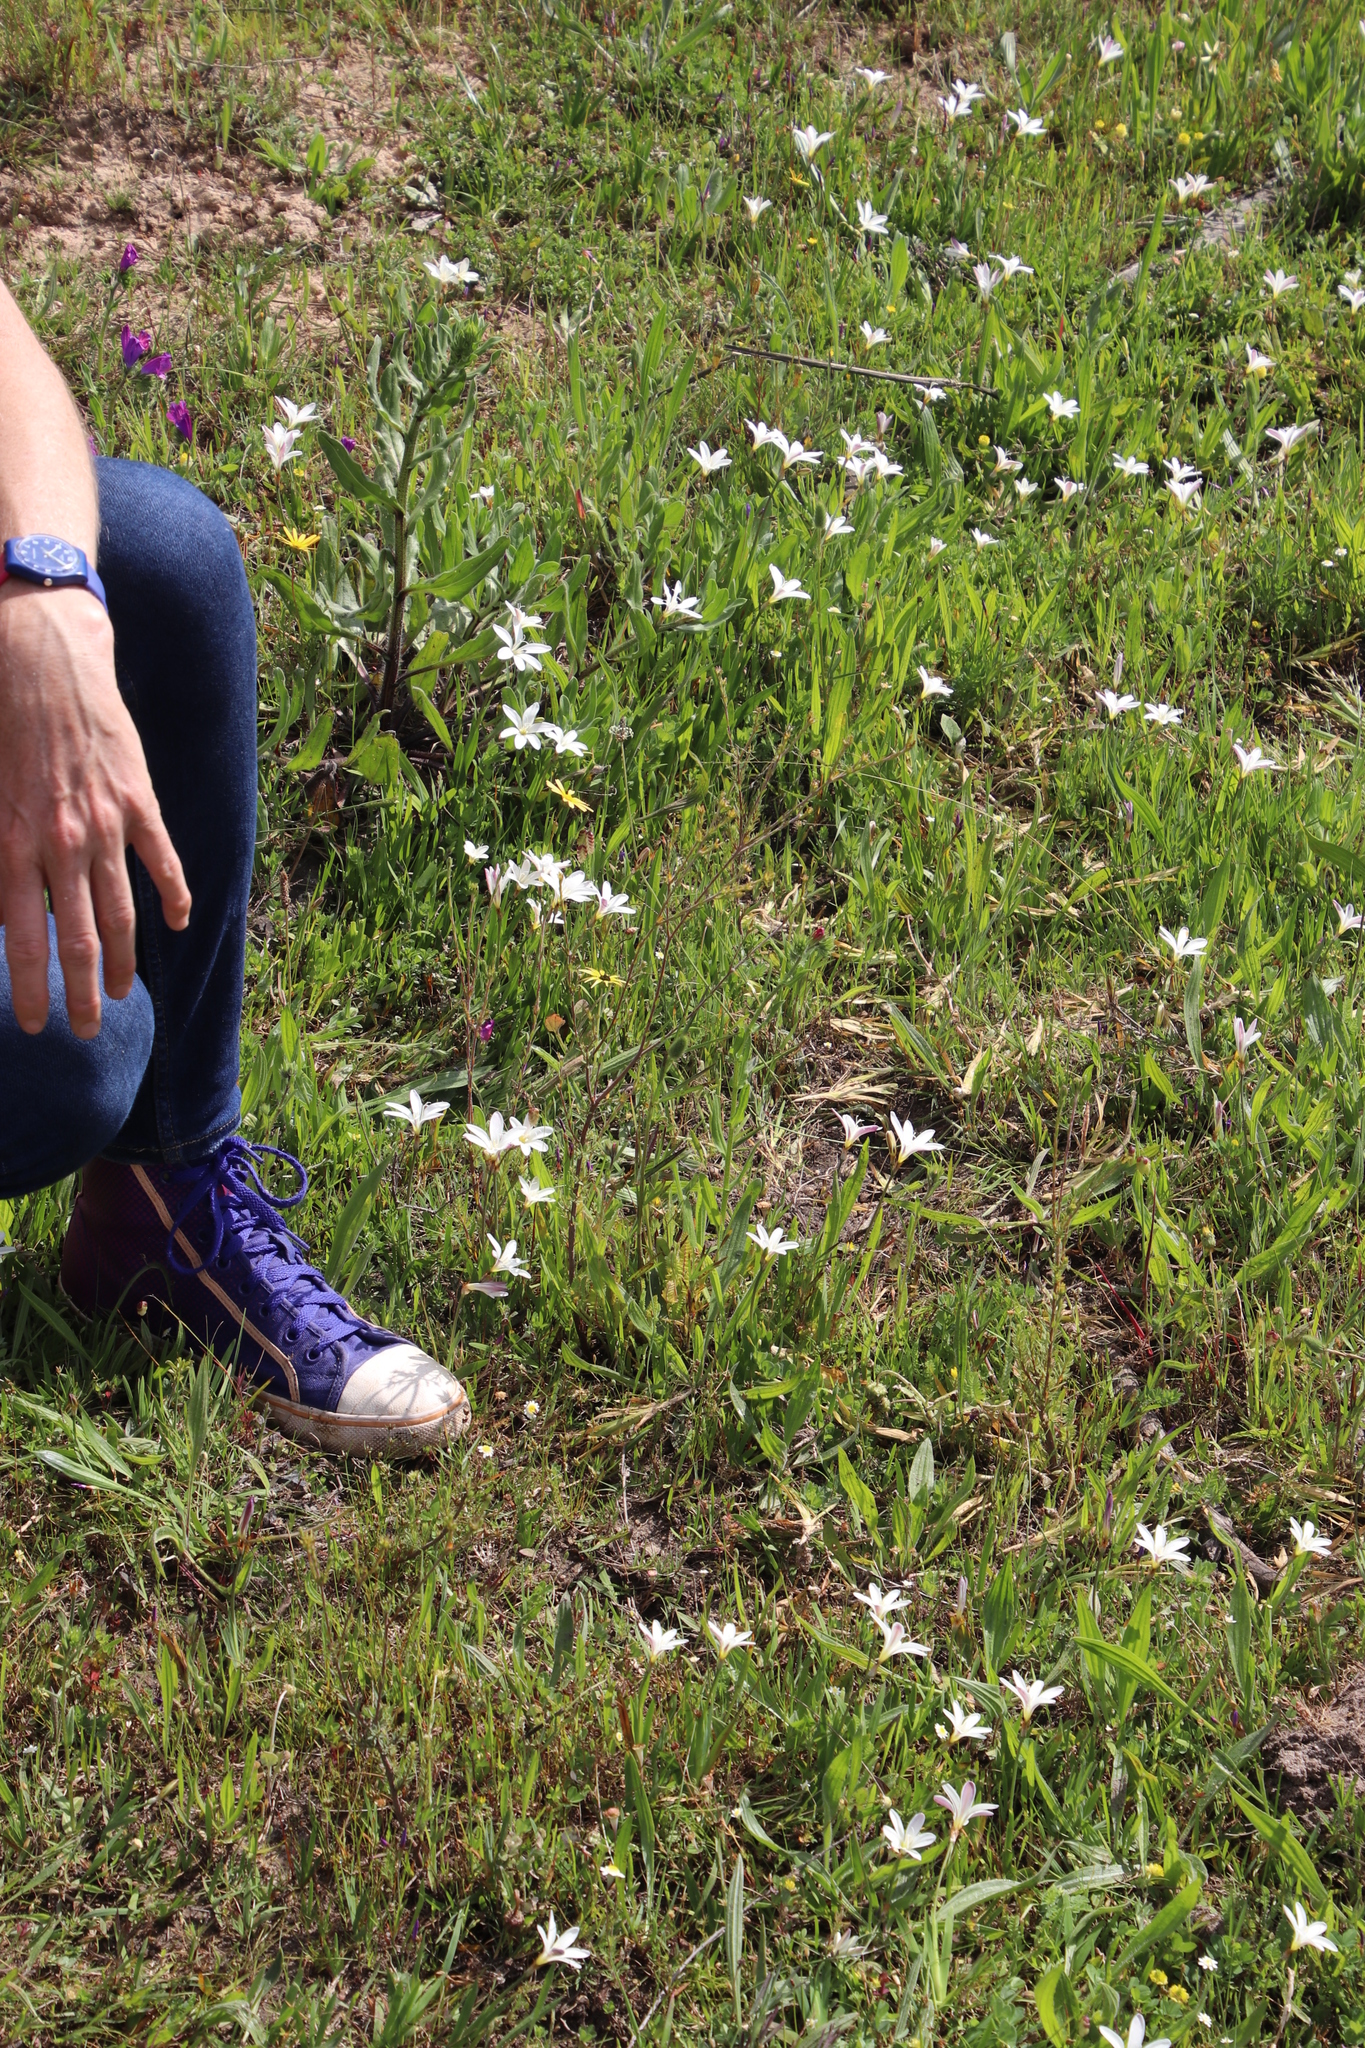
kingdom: Plantae
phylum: Tracheophyta
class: Magnoliopsida
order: Malvales
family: Thymelaeaceae
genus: Gnidia
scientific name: Gnidia laxa
